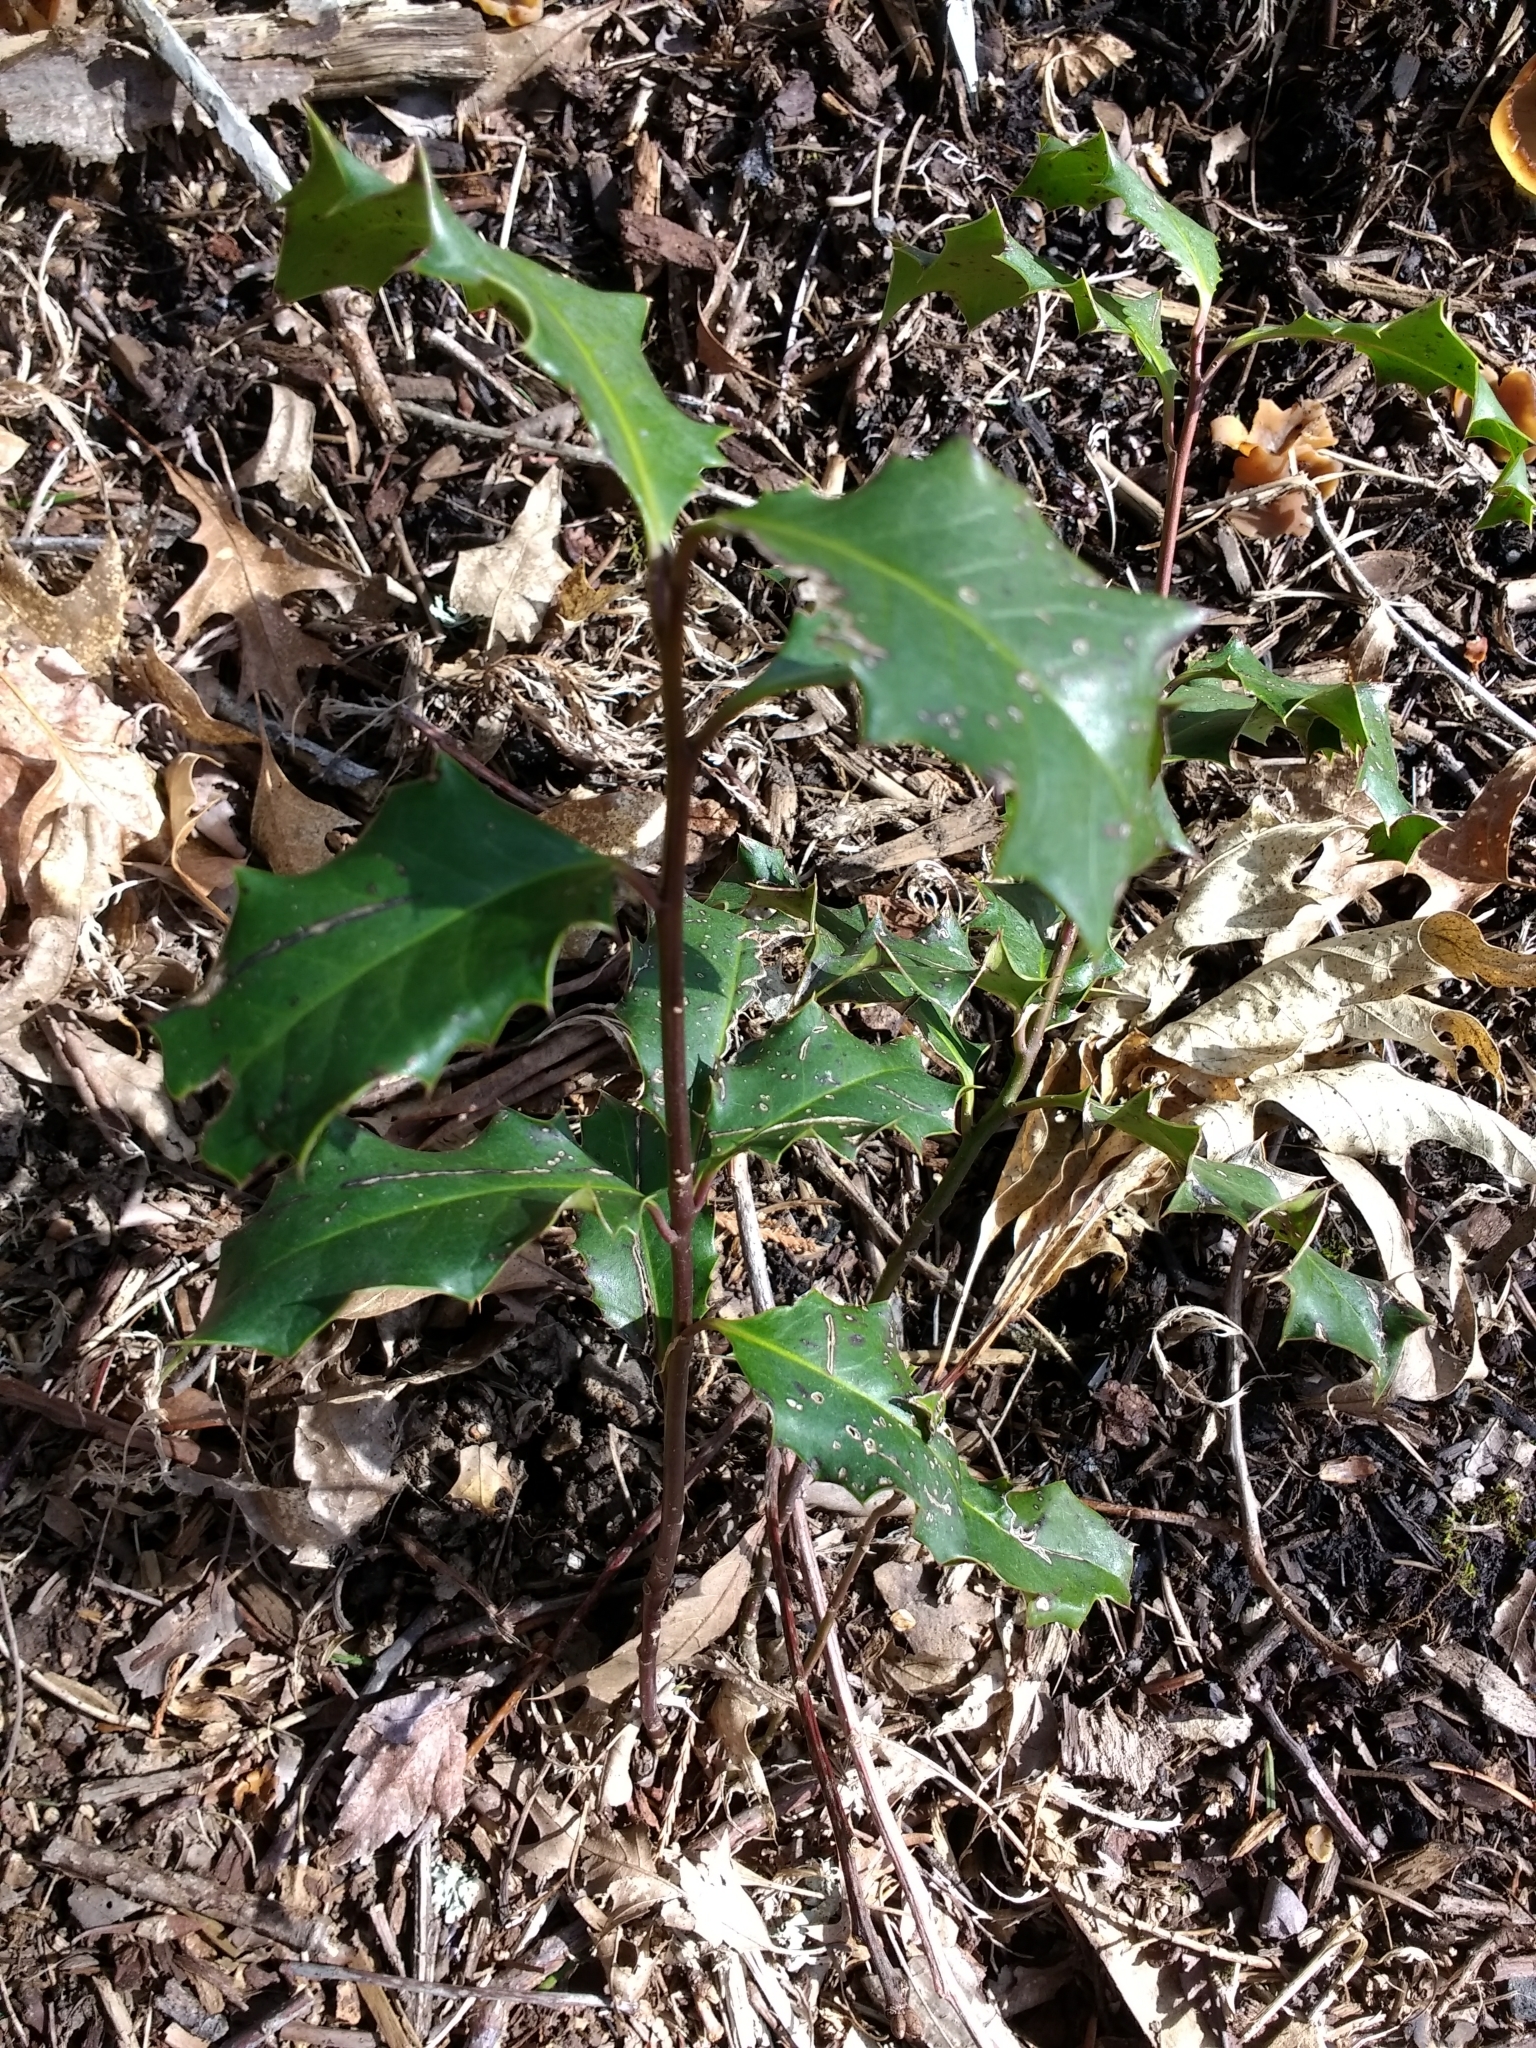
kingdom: Plantae
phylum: Tracheophyta
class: Magnoliopsida
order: Aquifoliales
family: Aquifoliaceae
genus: Ilex
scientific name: Ilex aquifolium
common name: English holly
